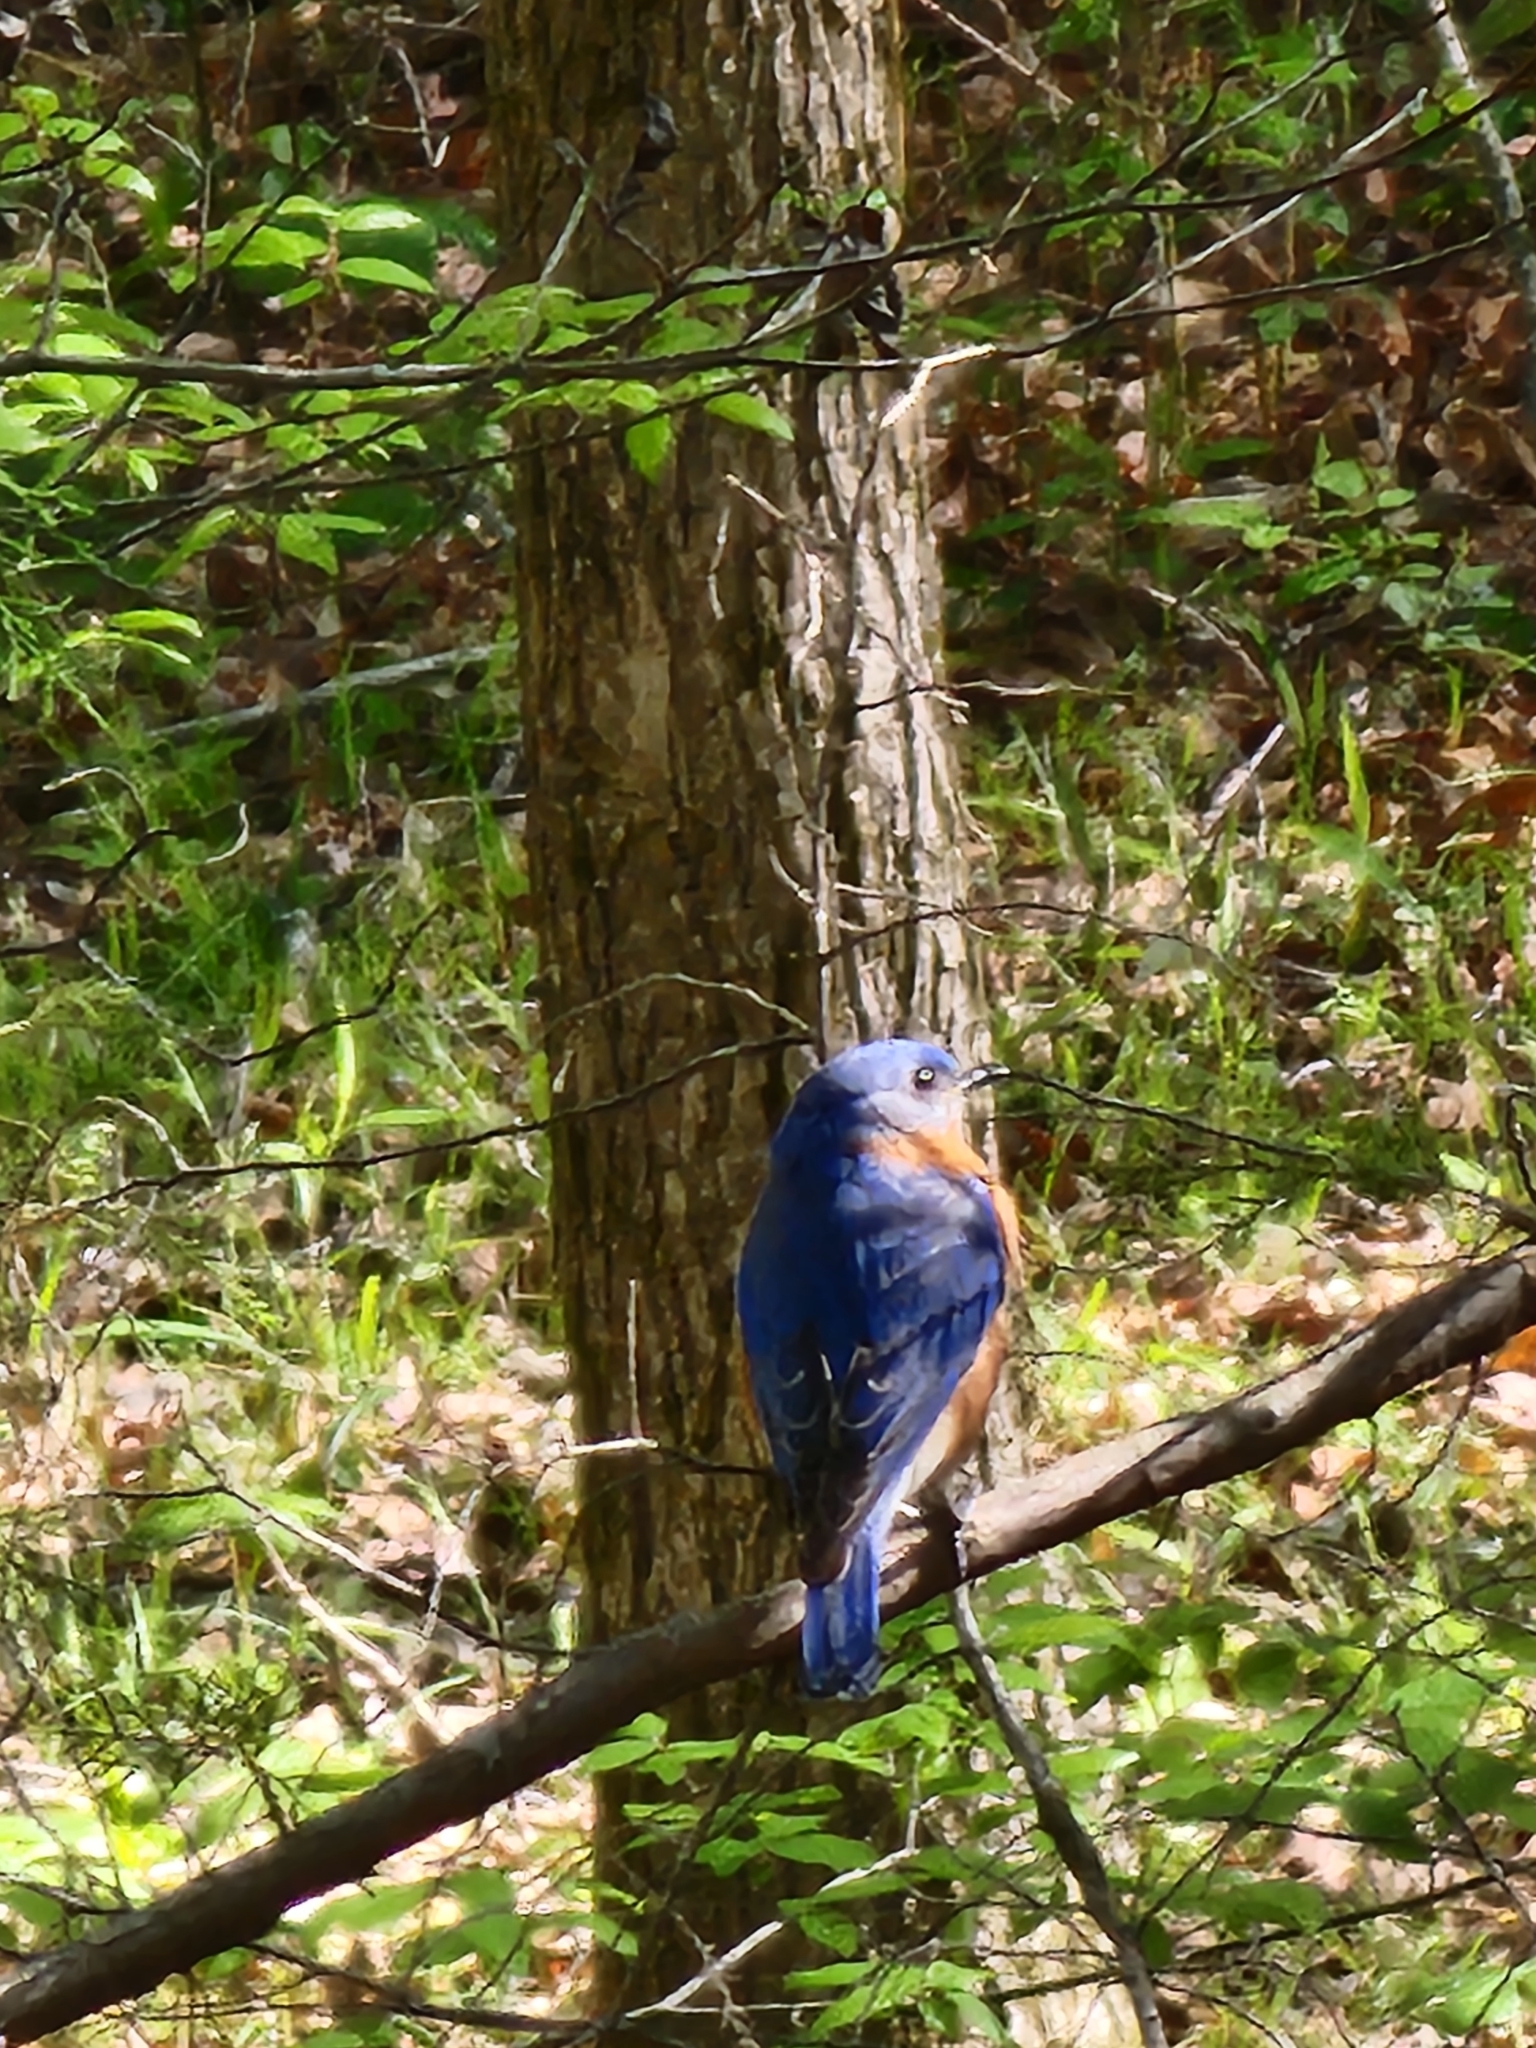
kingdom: Animalia
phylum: Chordata
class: Aves
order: Passeriformes
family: Turdidae
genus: Sialia
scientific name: Sialia sialis
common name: Eastern bluebird
